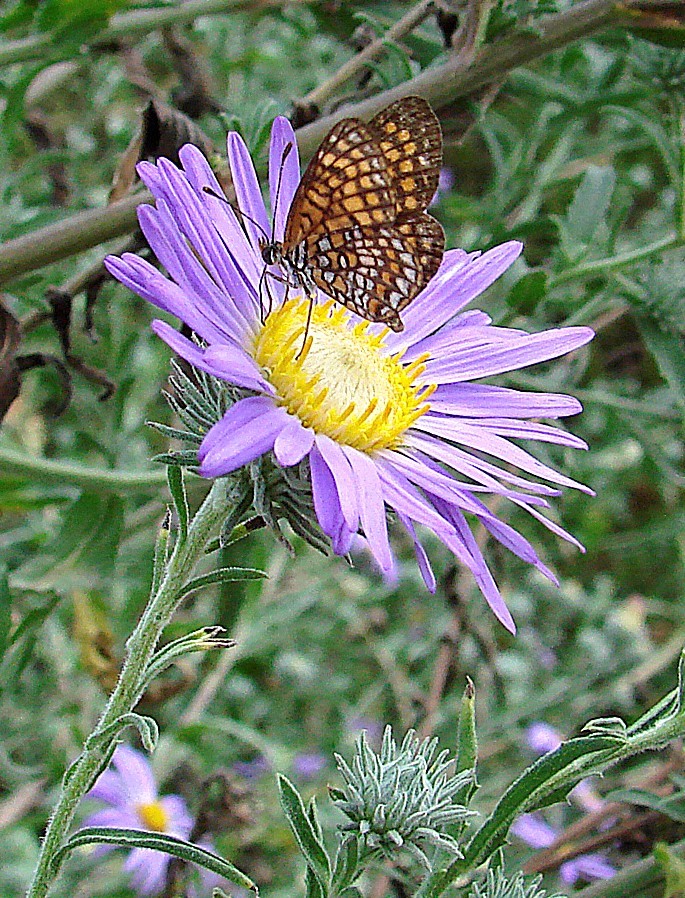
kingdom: Animalia
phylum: Arthropoda
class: Insecta
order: Lepidoptera
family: Nymphalidae
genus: Texola
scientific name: Texola
